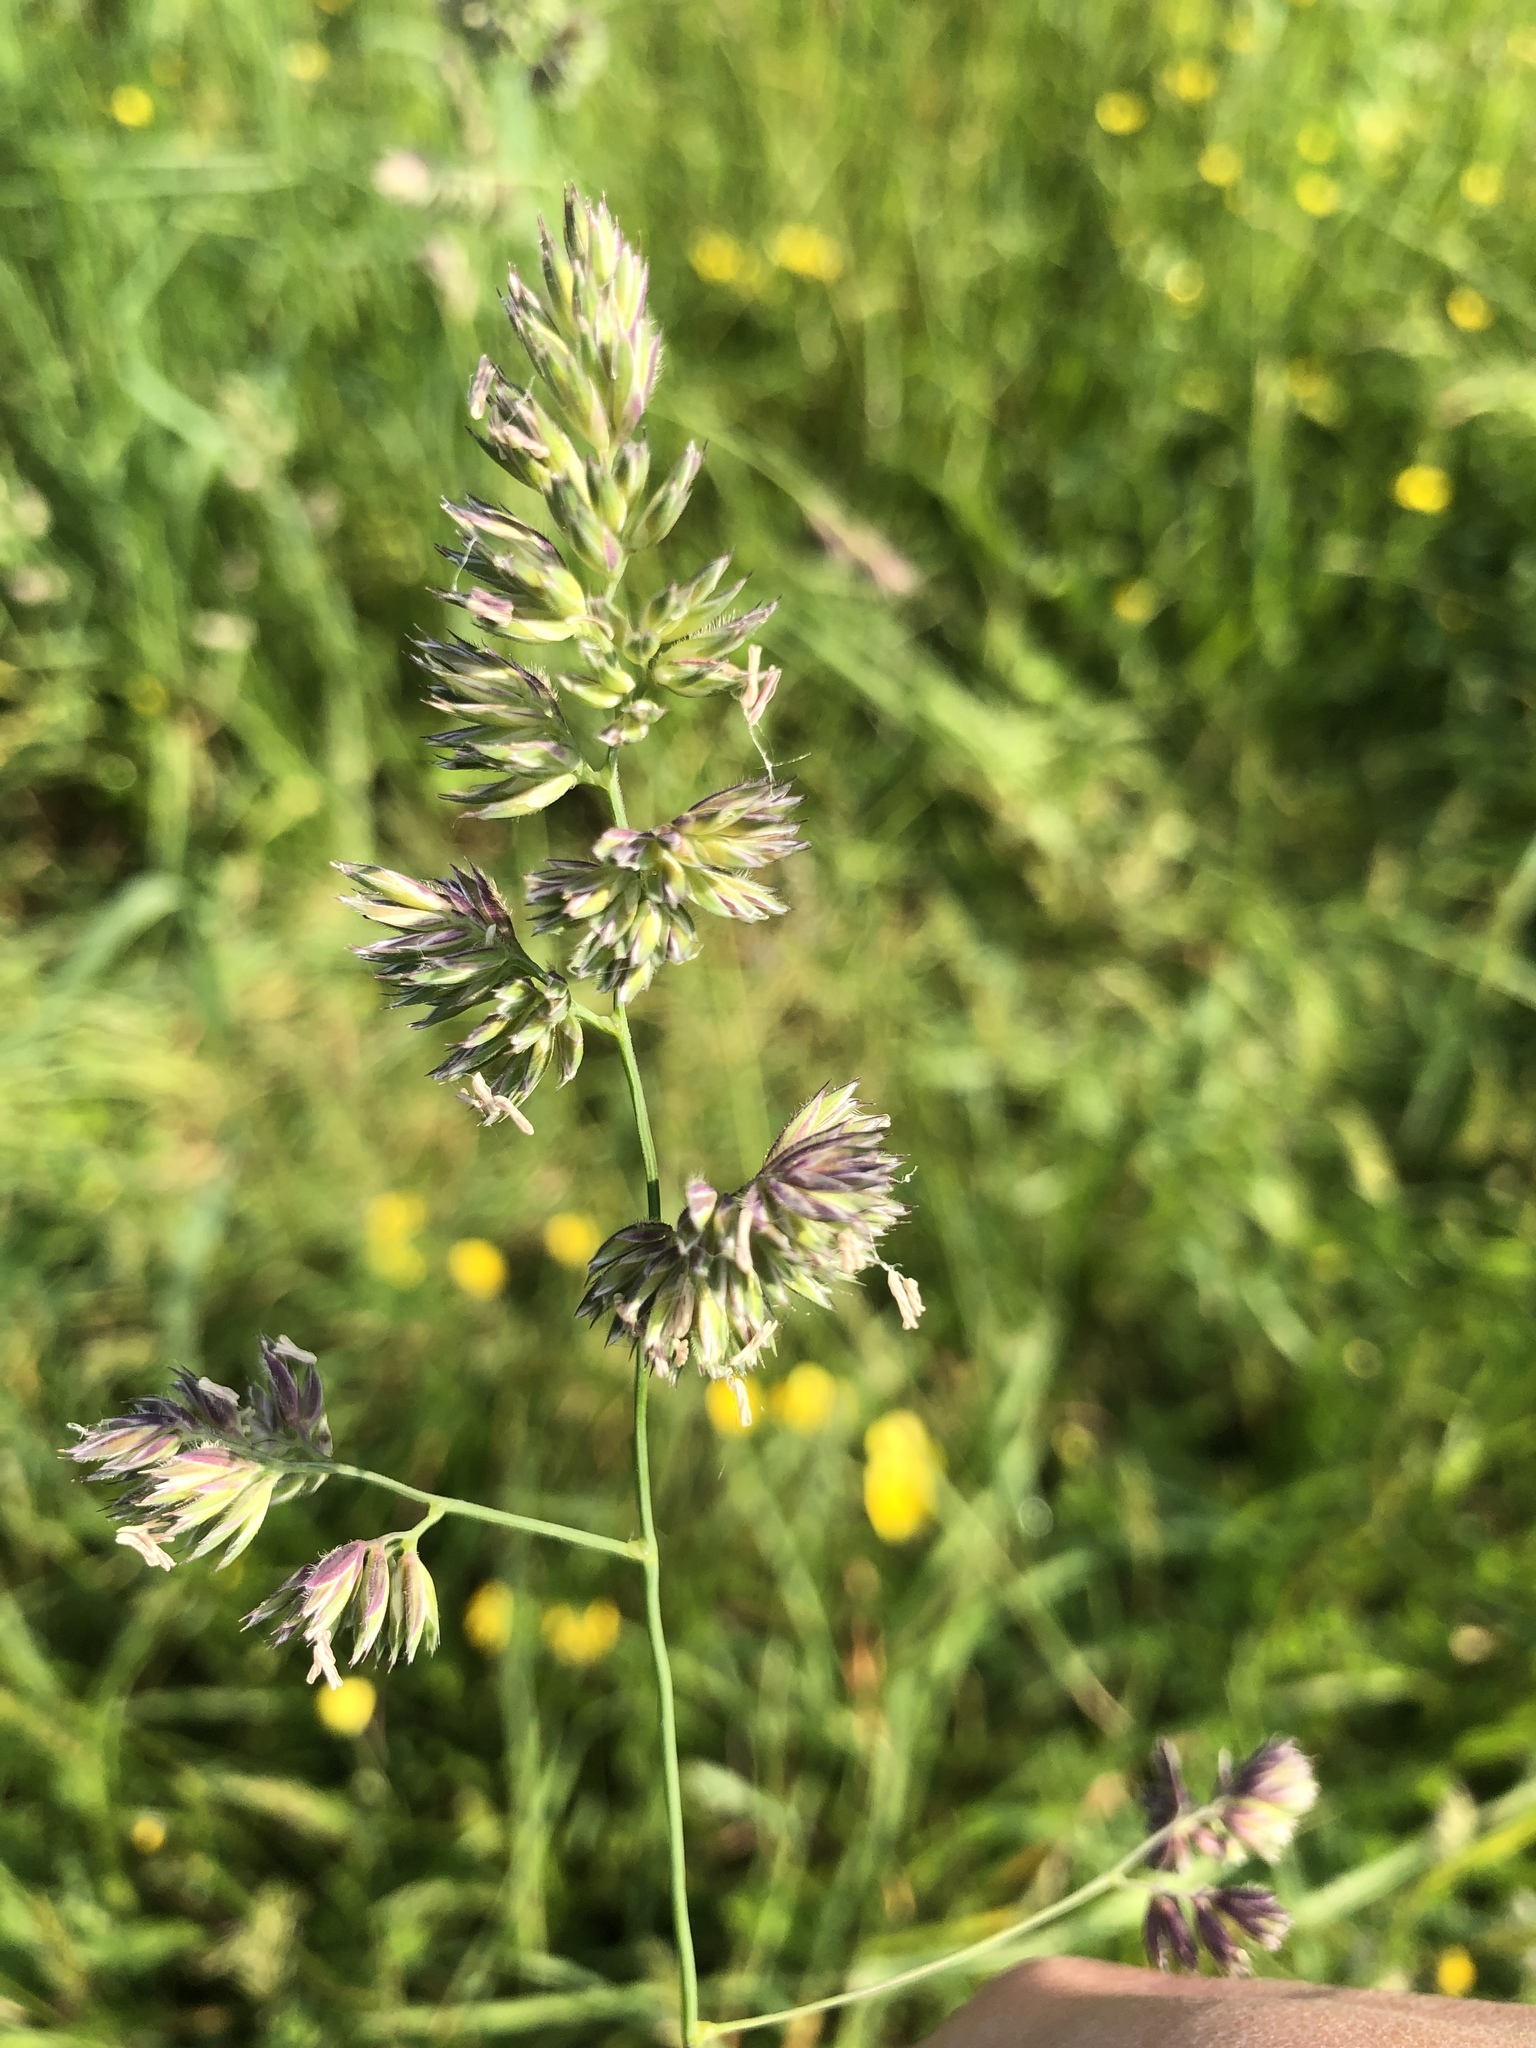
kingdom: Plantae
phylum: Tracheophyta
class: Liliopsida
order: Poales
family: Poaceae
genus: Dactylis
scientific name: Dactylis glomerata
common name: Orchardgrass
